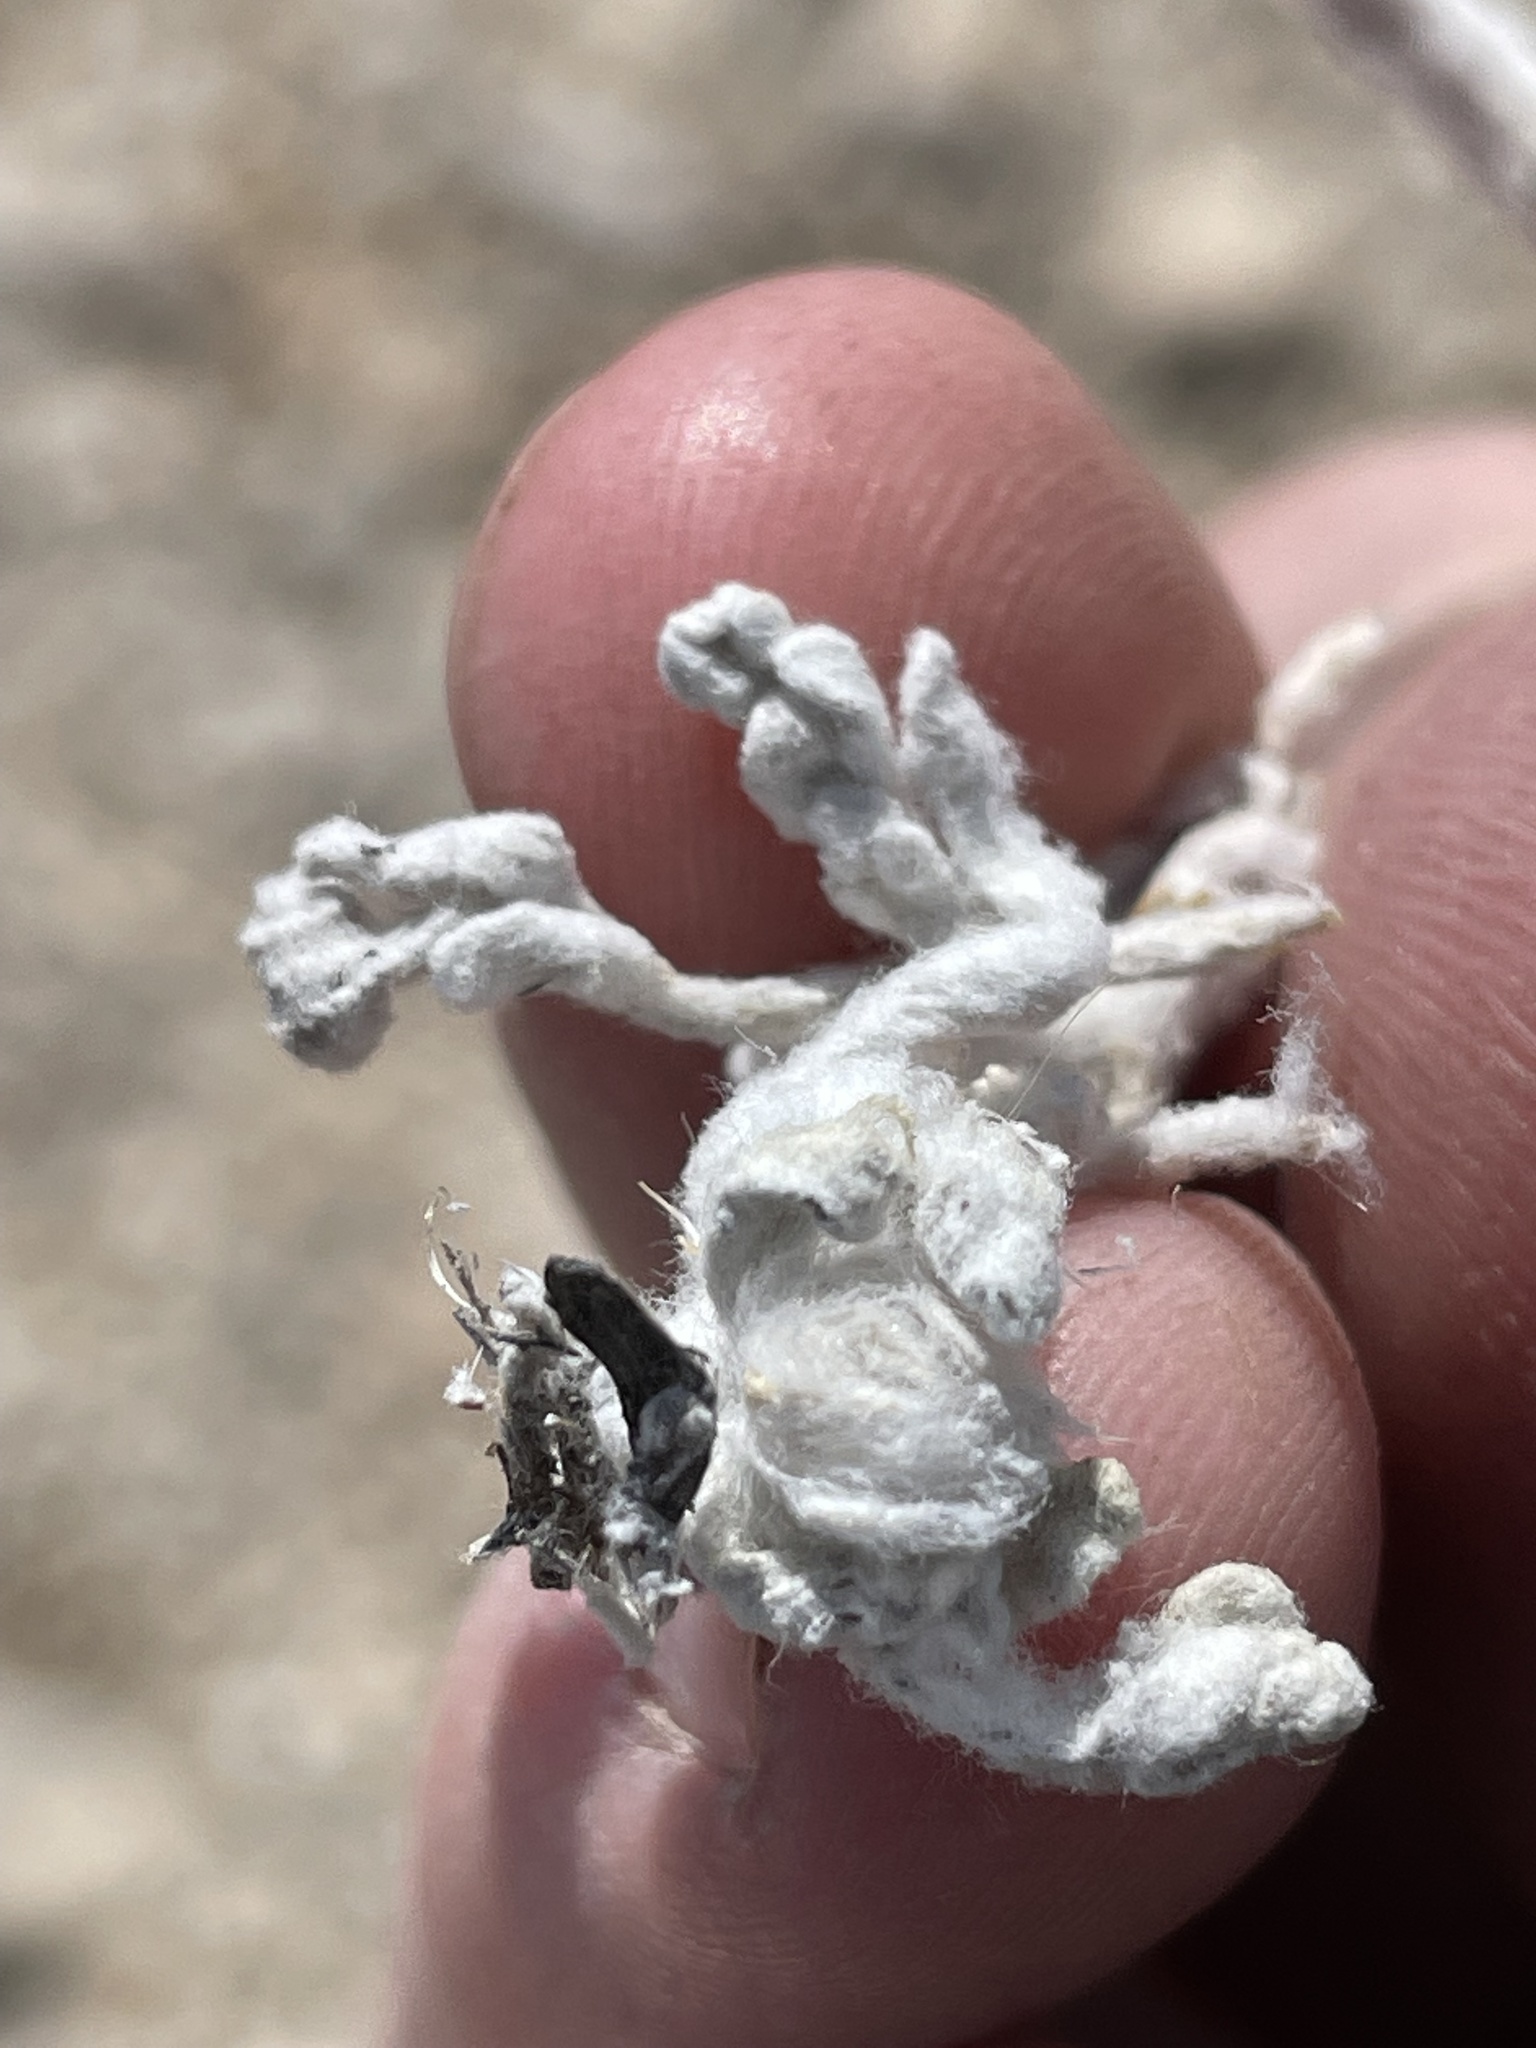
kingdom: Plantae
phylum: Tracheophyta
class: Magnoliopsida
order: Asterales
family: Asteraceae
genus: Baileya
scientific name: Baileya multiradiata
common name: Desert-marigold
